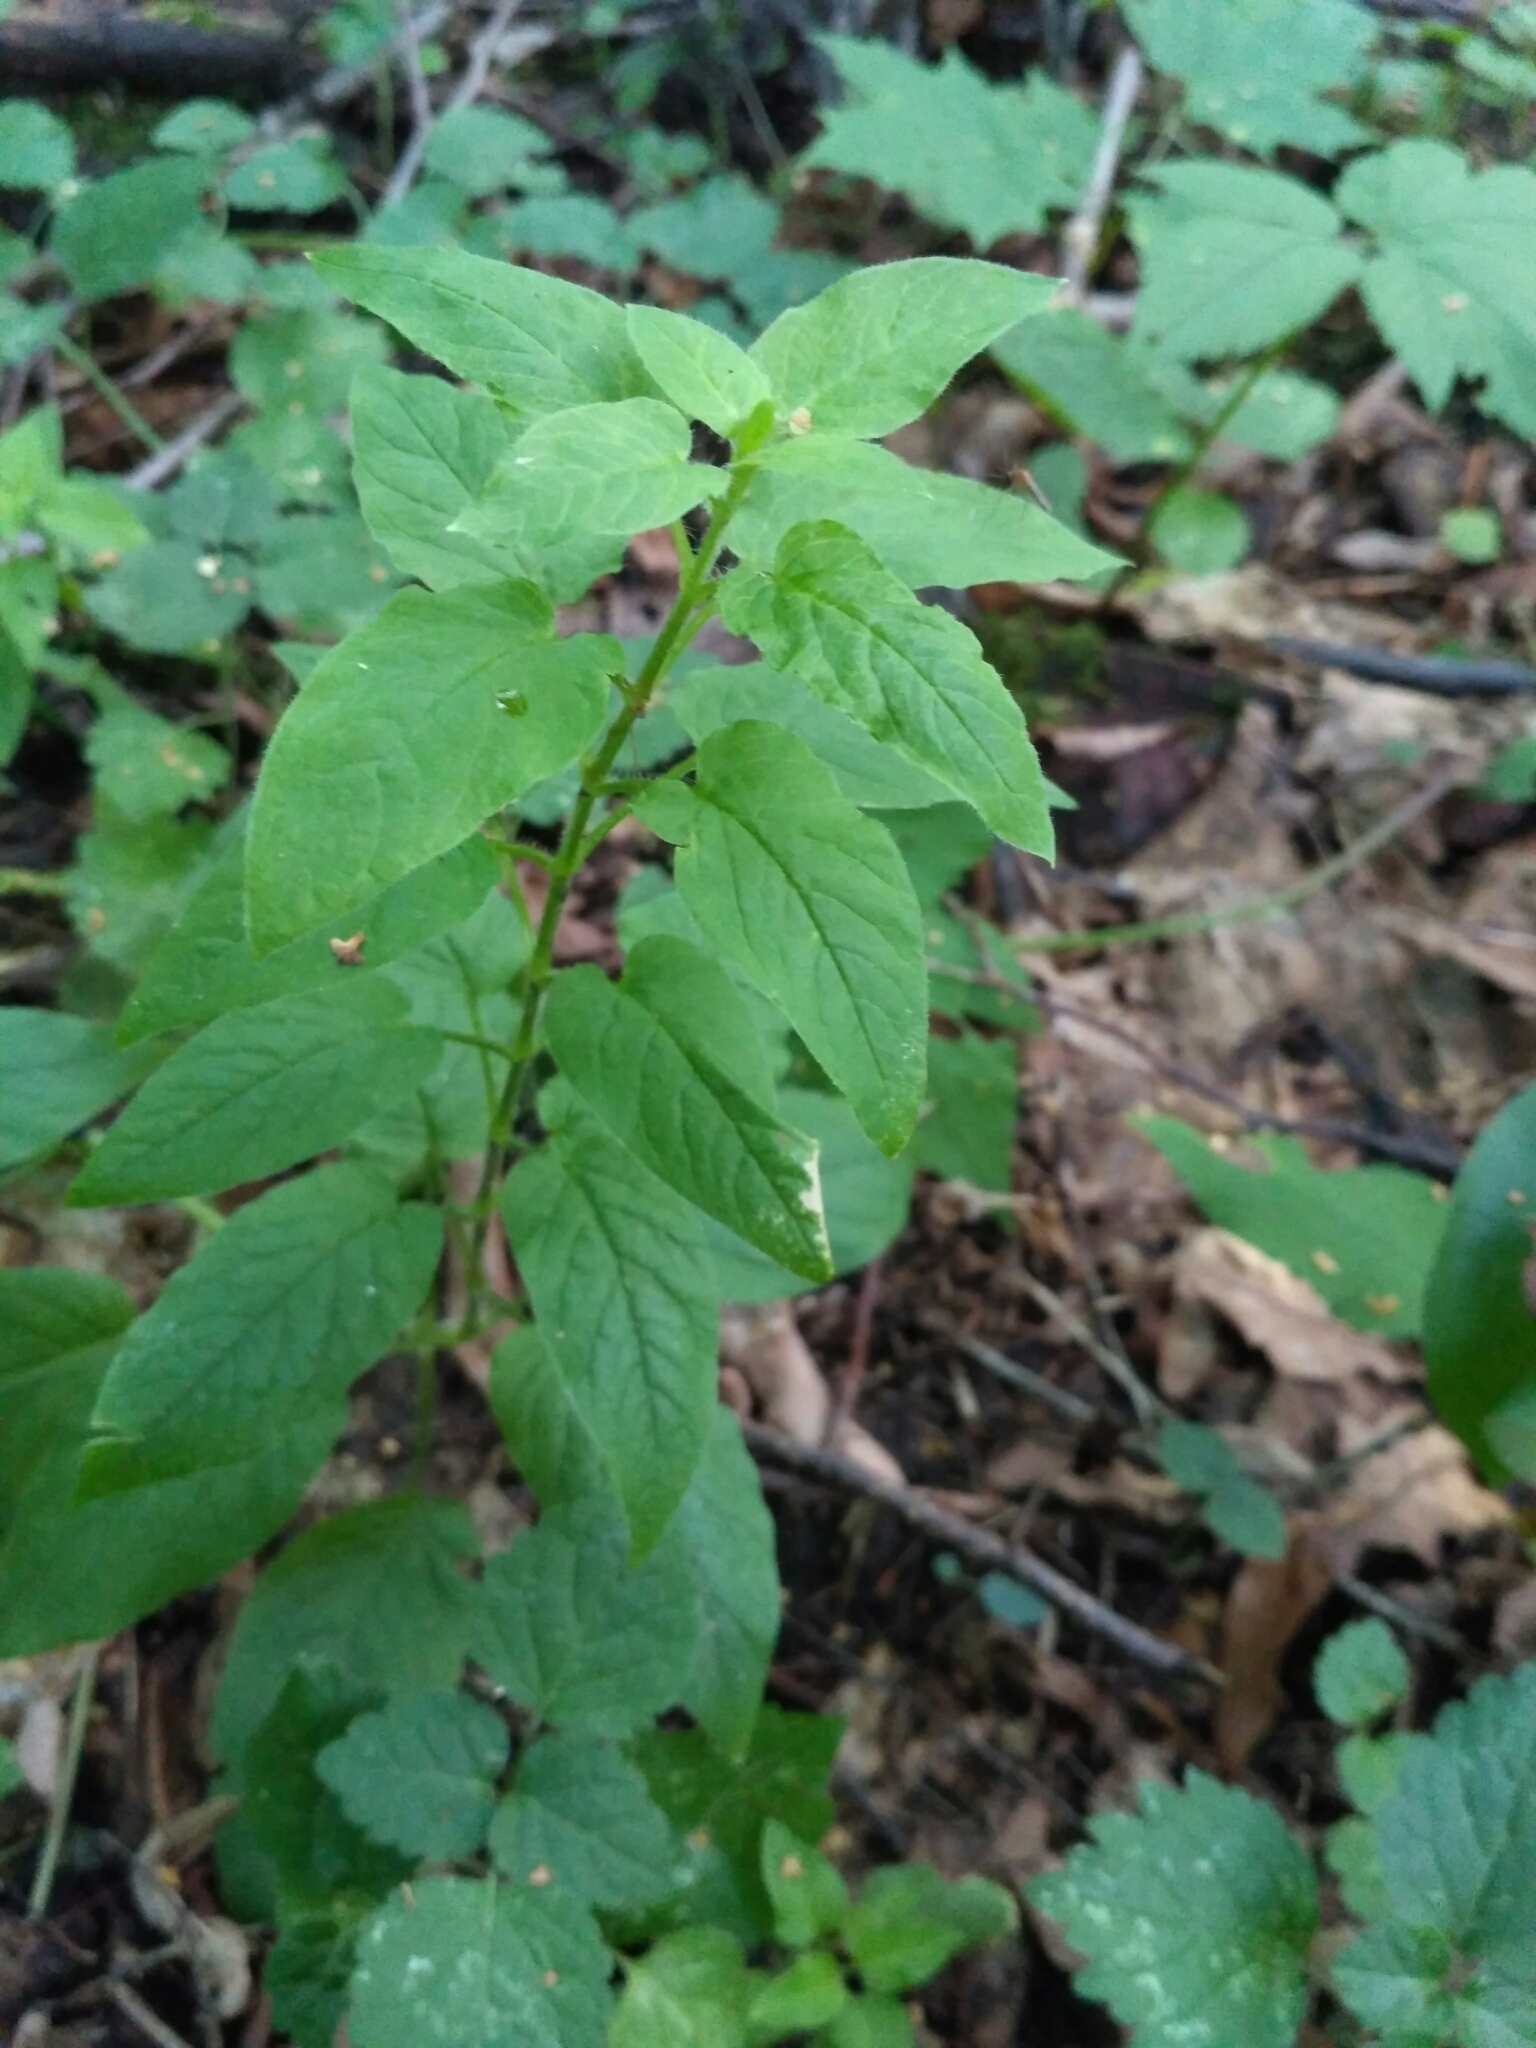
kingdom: Plantae
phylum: Tracheophyta
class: Magnoliopsida
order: Caryophyllales
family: Caryophyllaceae
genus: Stellaria
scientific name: Stellaria nemorum
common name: Wood stitchwort
